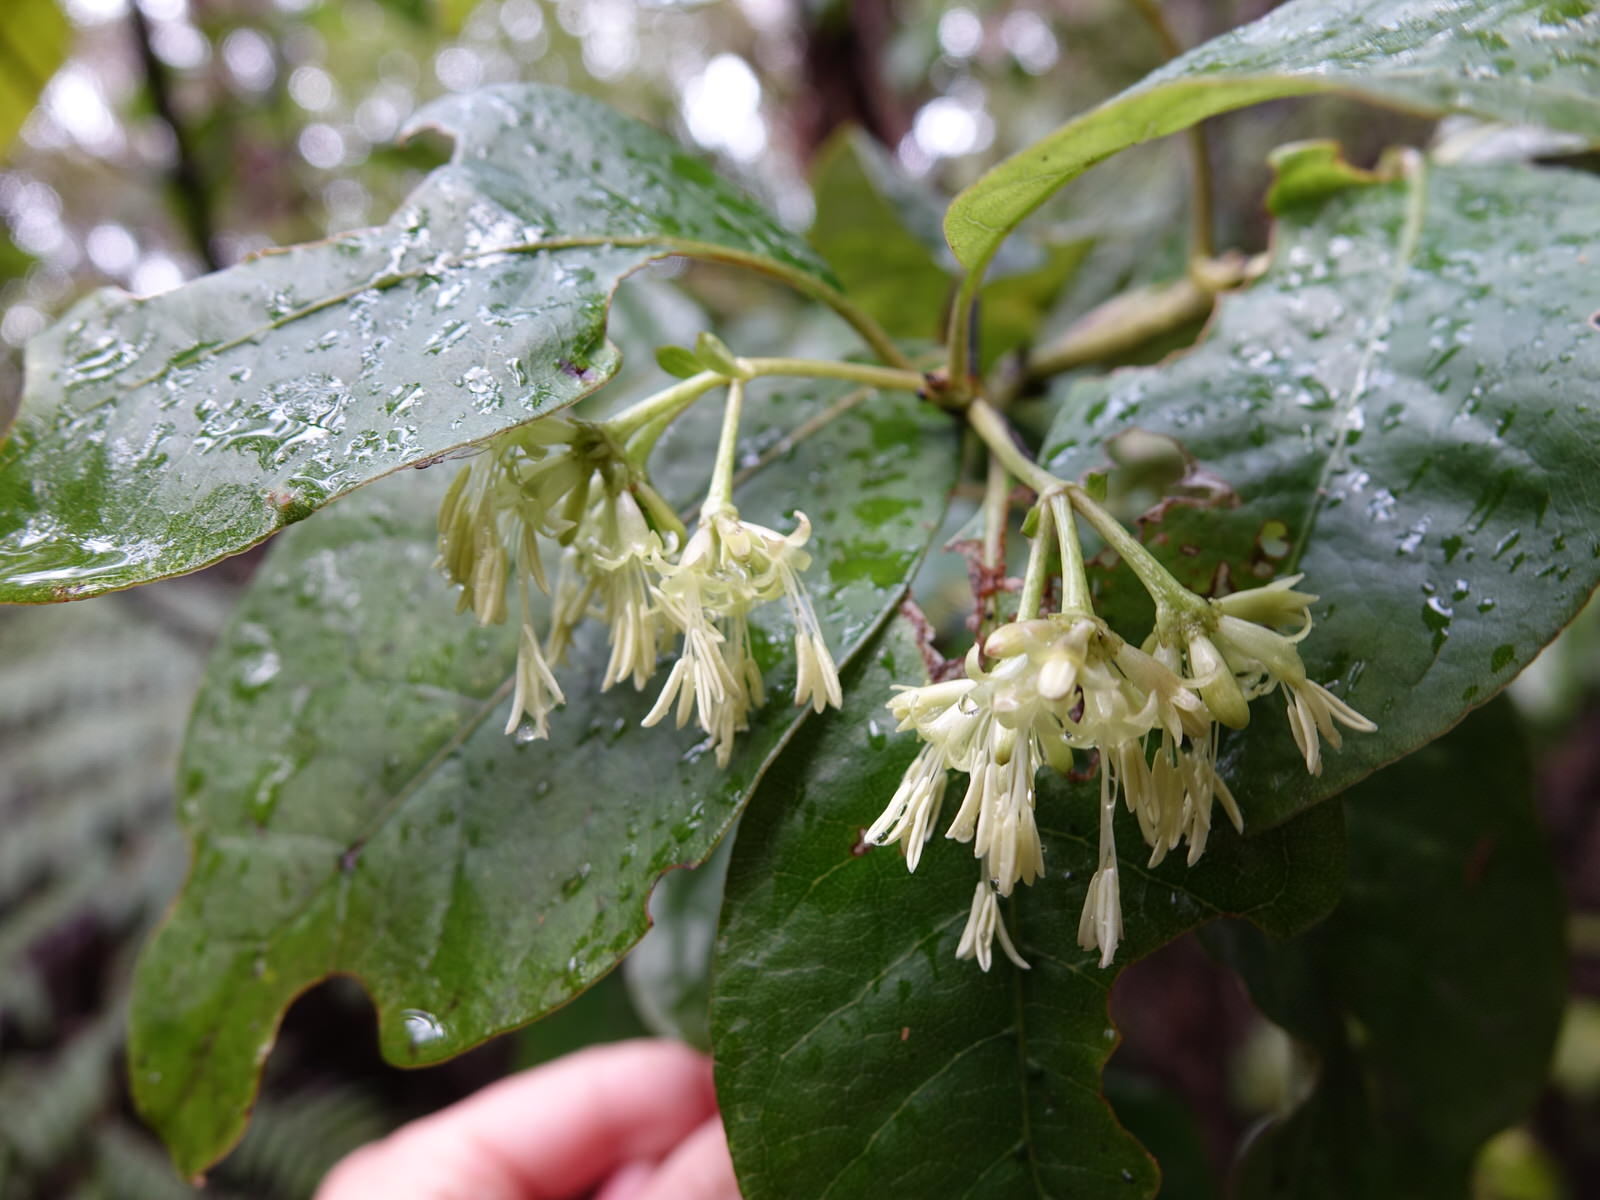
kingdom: Plantae
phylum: Tracheophyta
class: Magnoliopsida
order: Gentianales
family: Rubiaceae
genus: Coprosma
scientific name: Coprosma autumnalis
